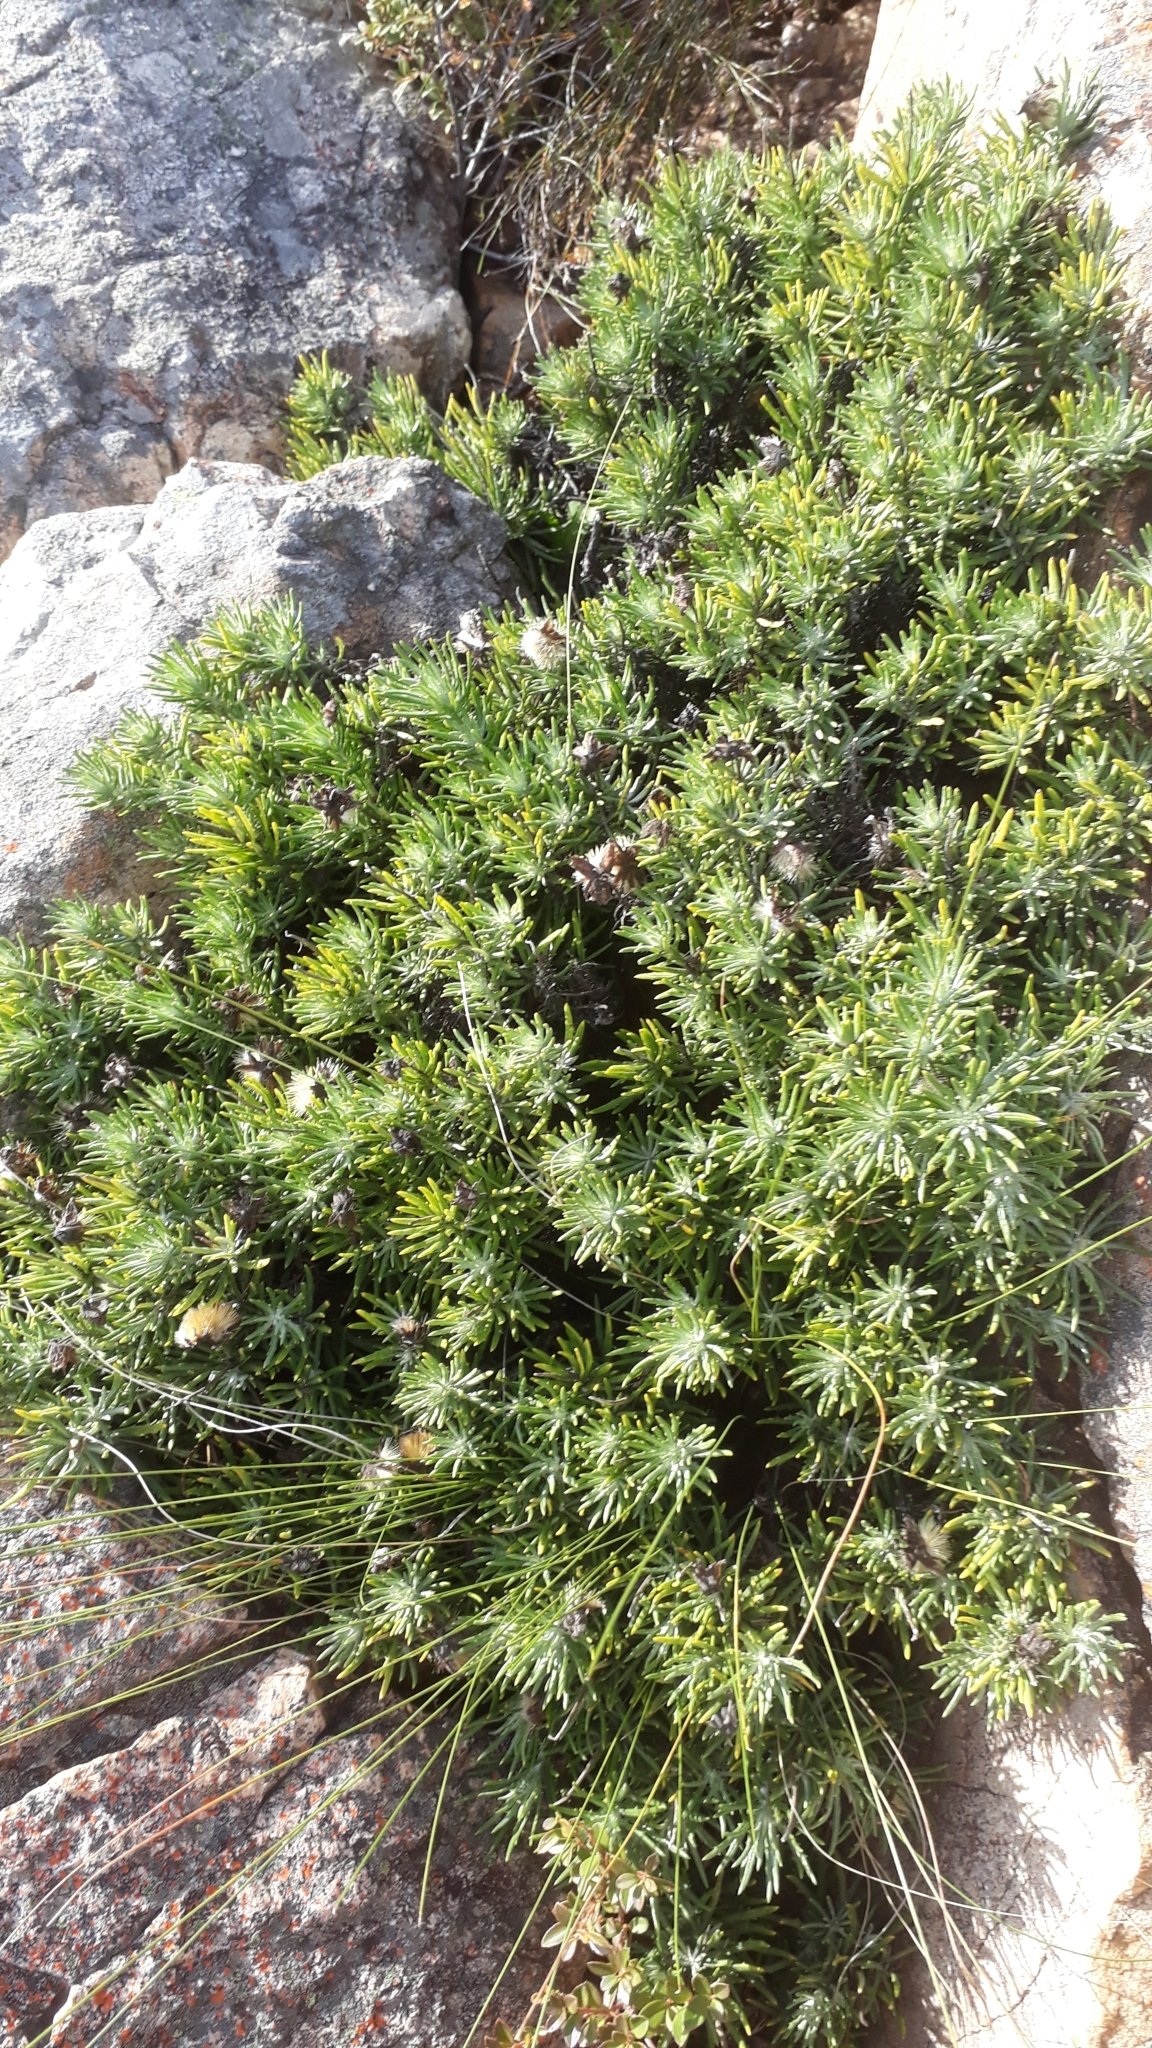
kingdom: Plantae
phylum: Tracheophyta
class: Magnoliopsida
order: Asterales
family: Asteraceae
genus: Heterolepis
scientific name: Heterolepis aliena
